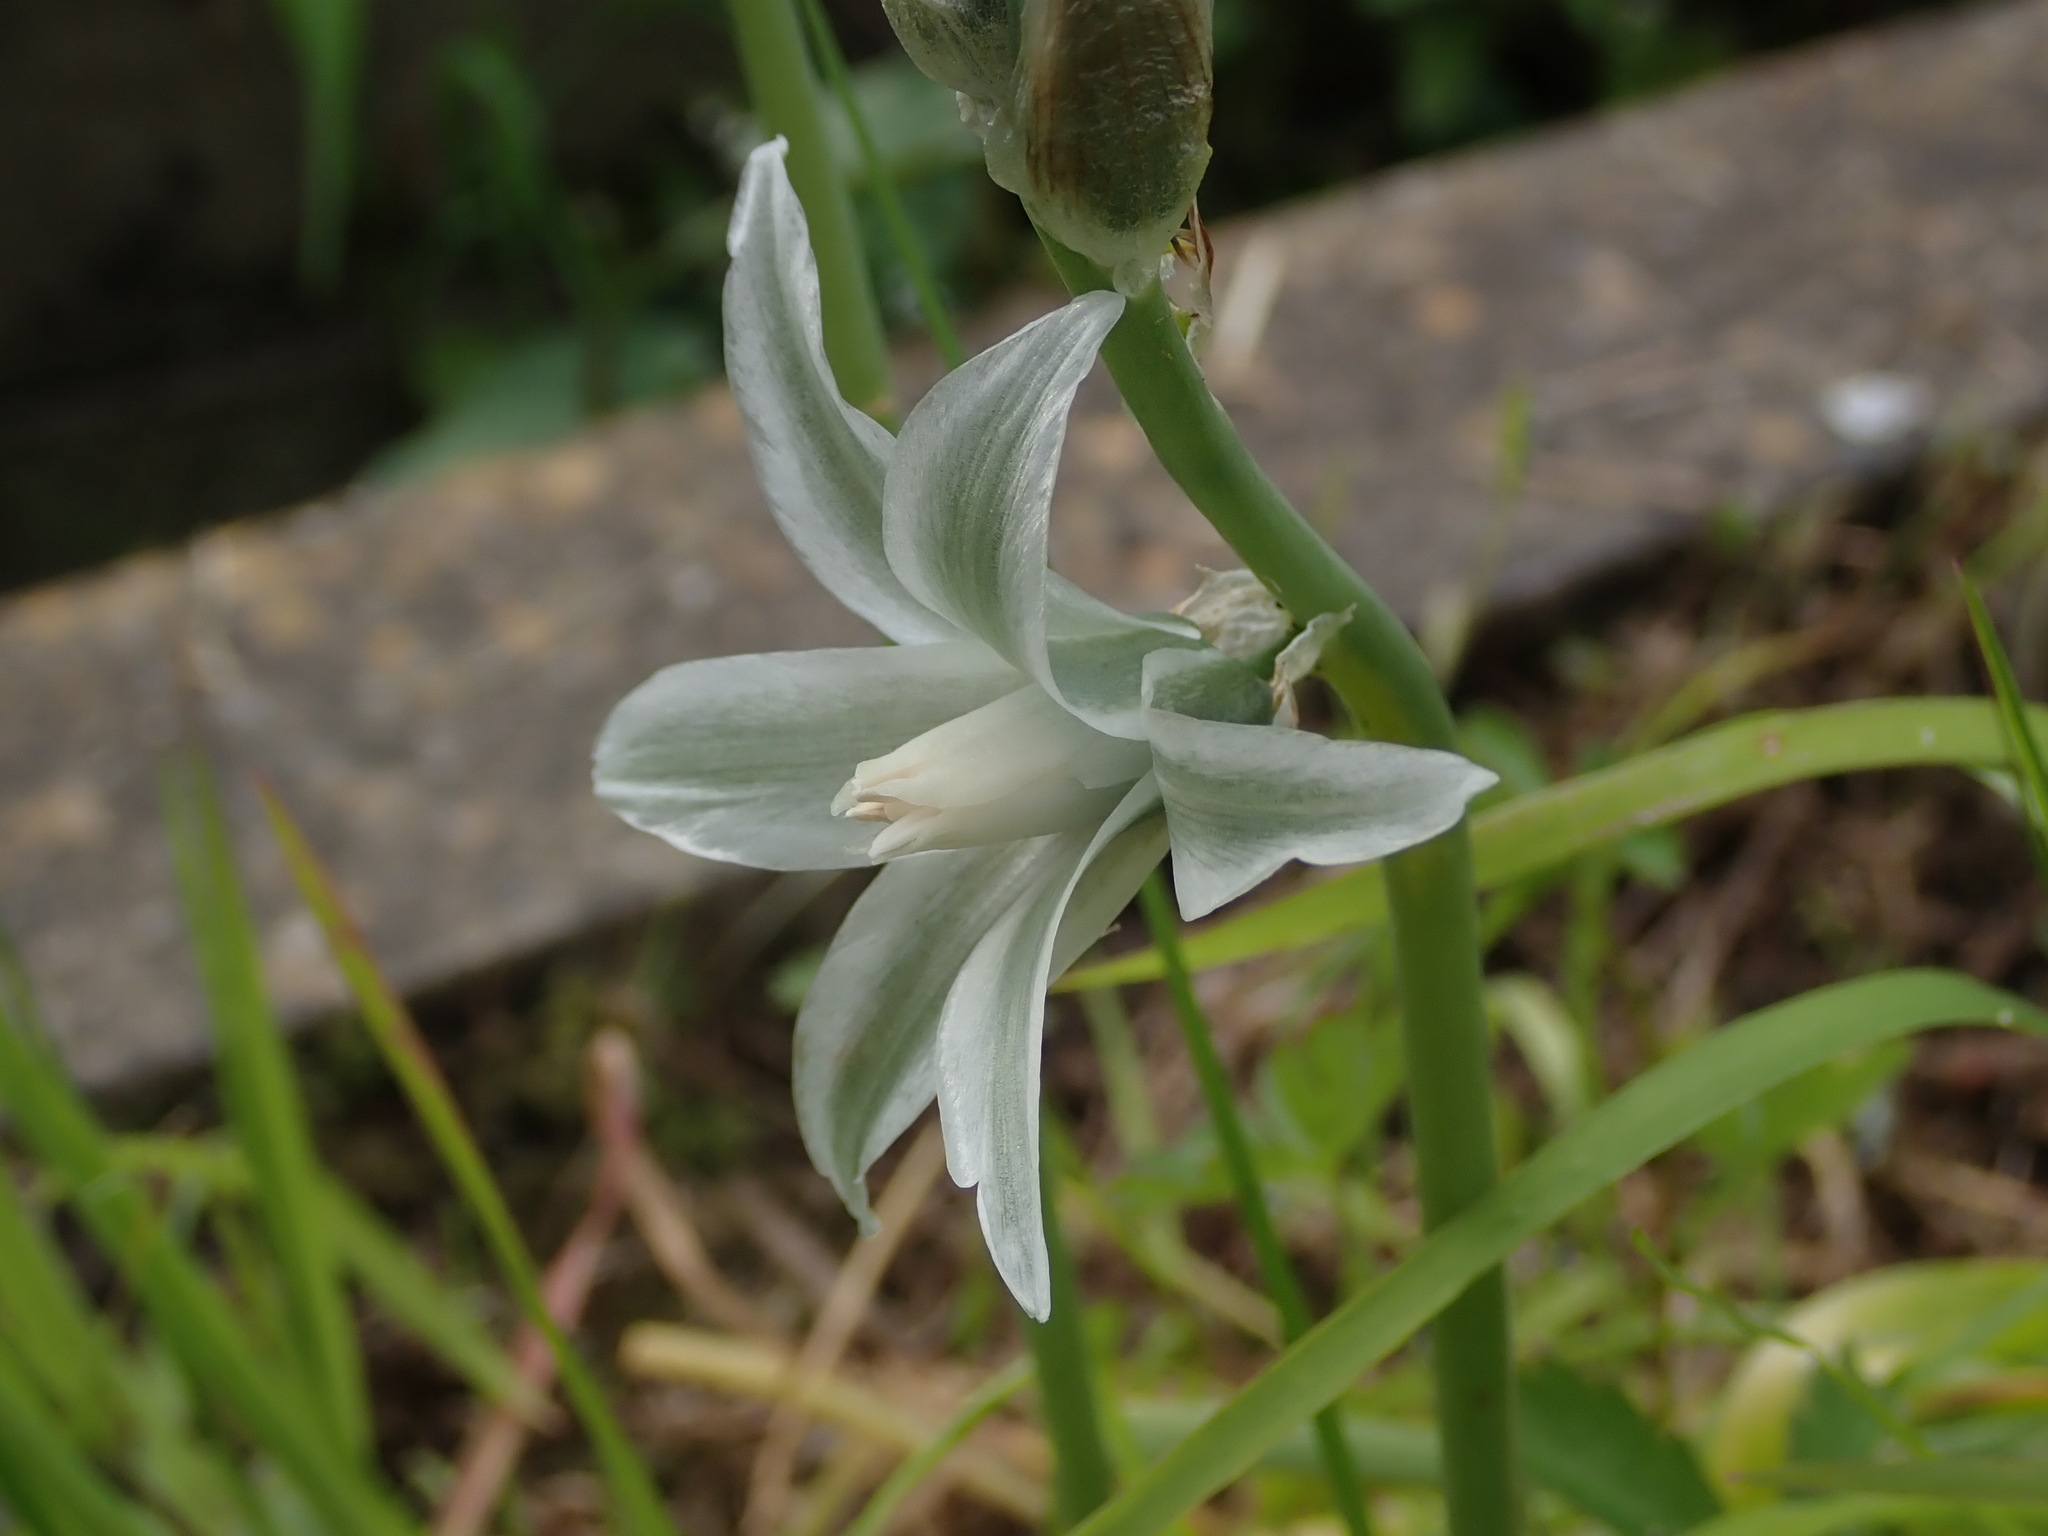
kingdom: Plantae
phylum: Tracheophyta
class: Liliopsida
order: Asparagales
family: Asparagaceae
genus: Ornithogalum
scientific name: Ornithogalum nutans
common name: Drooping star-of-bethlehem
